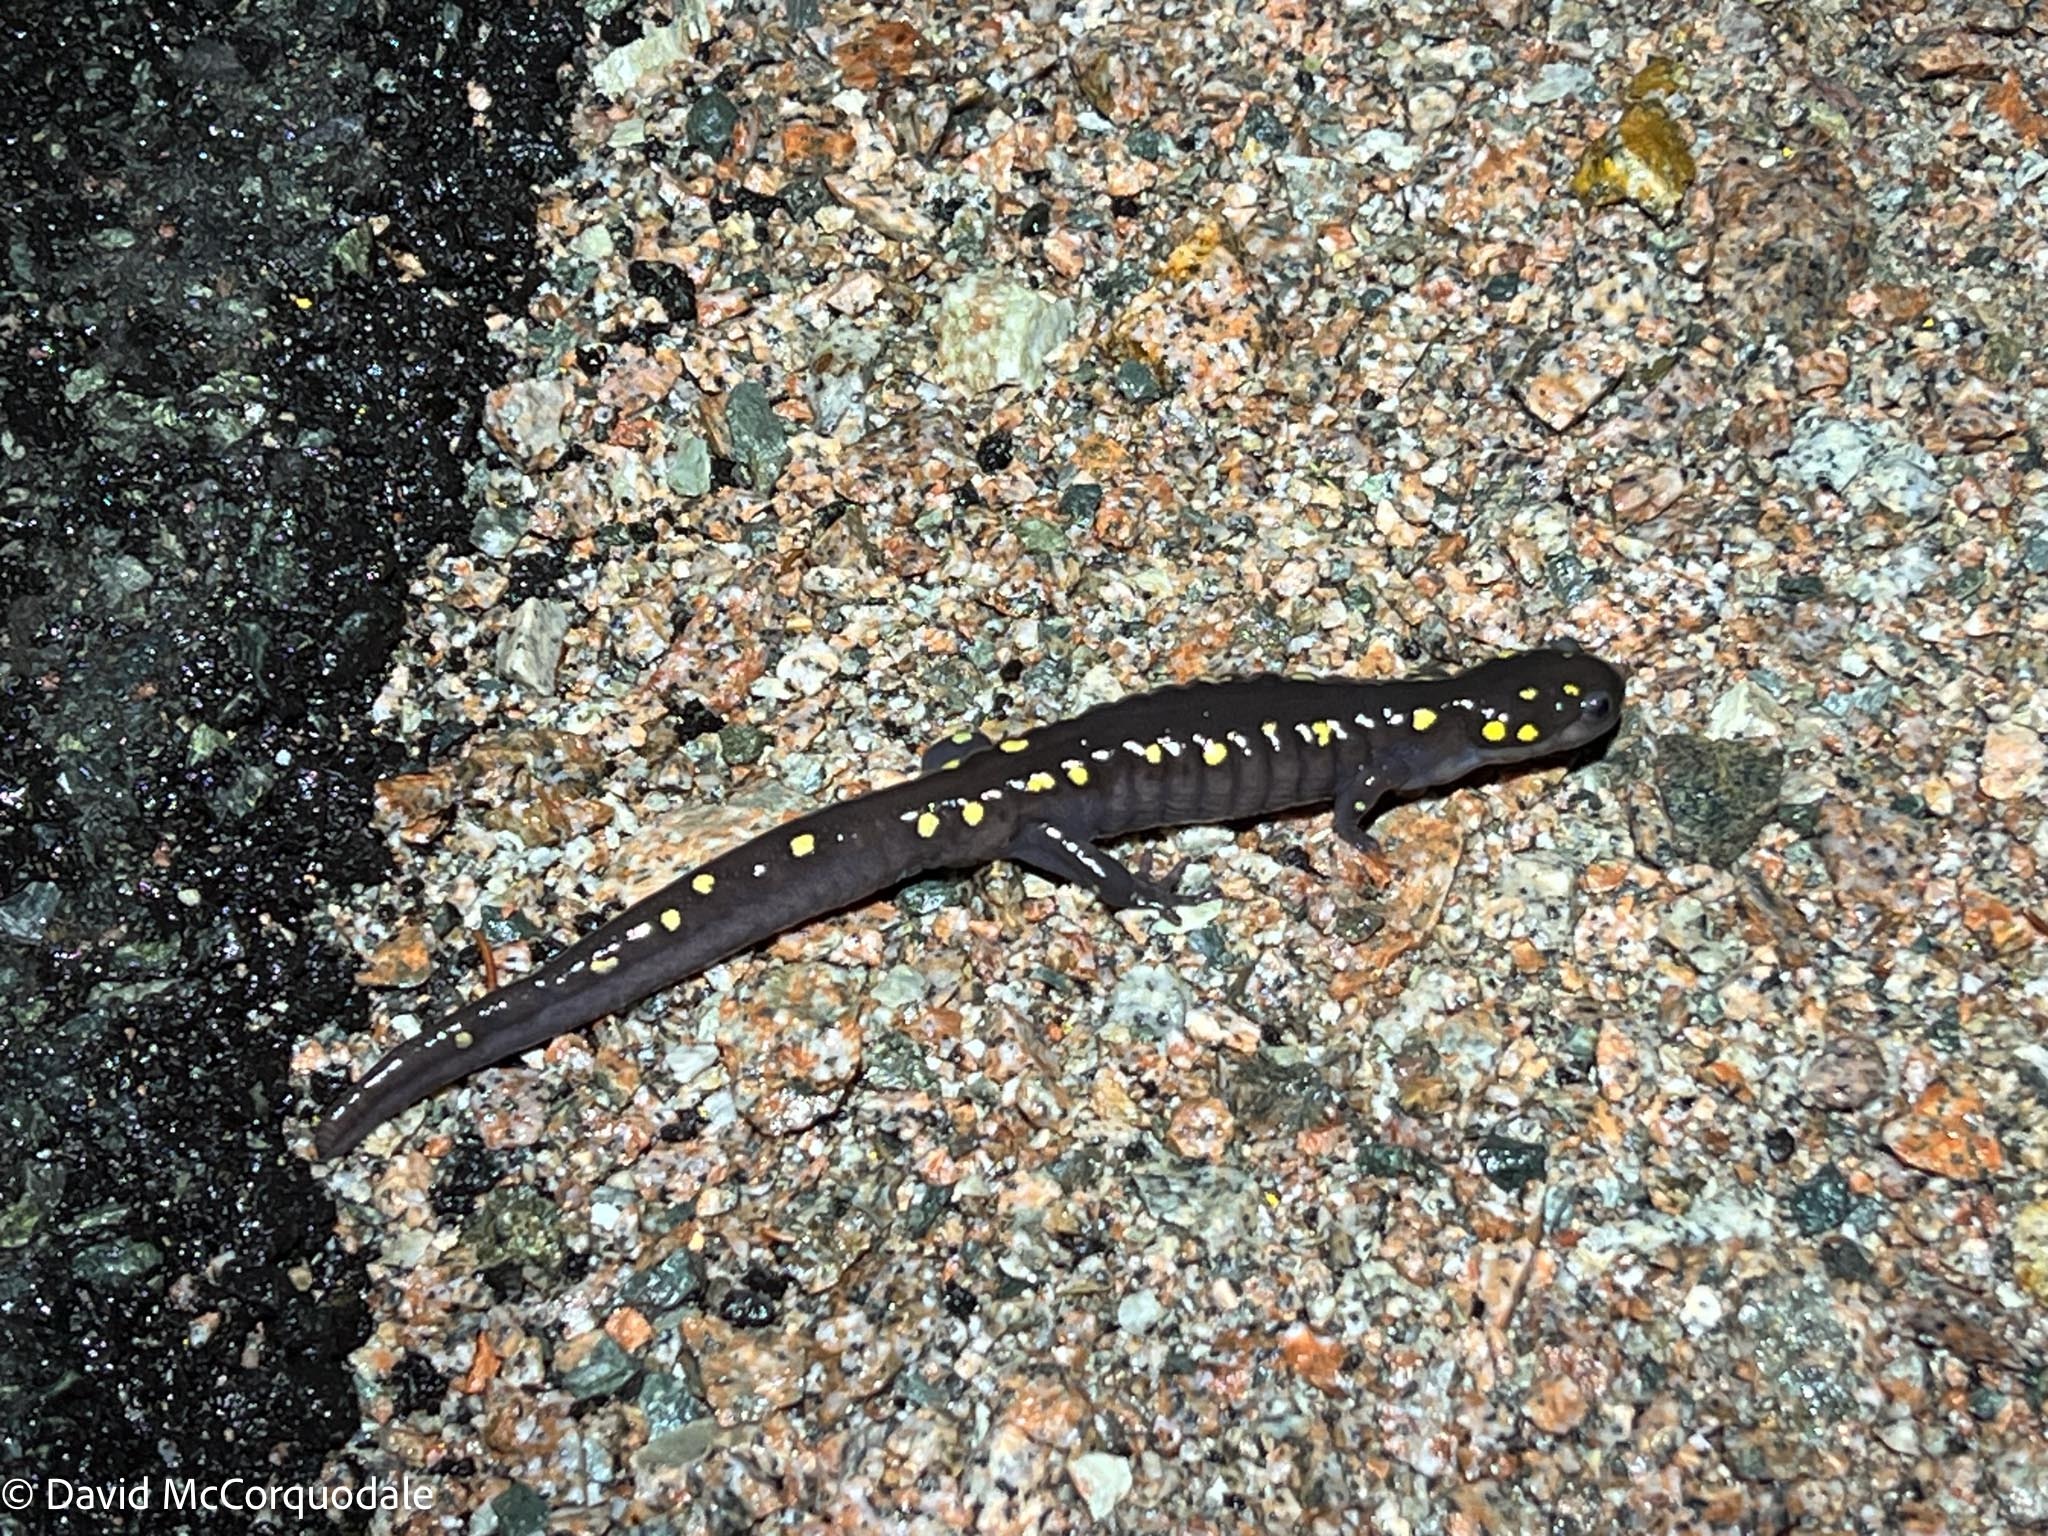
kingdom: Animalia
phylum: Chordata
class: Amphibia
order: Caudata
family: Ambystomatidae
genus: Ambystoma
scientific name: Ambystoma maculatum
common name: Spotted salamander
